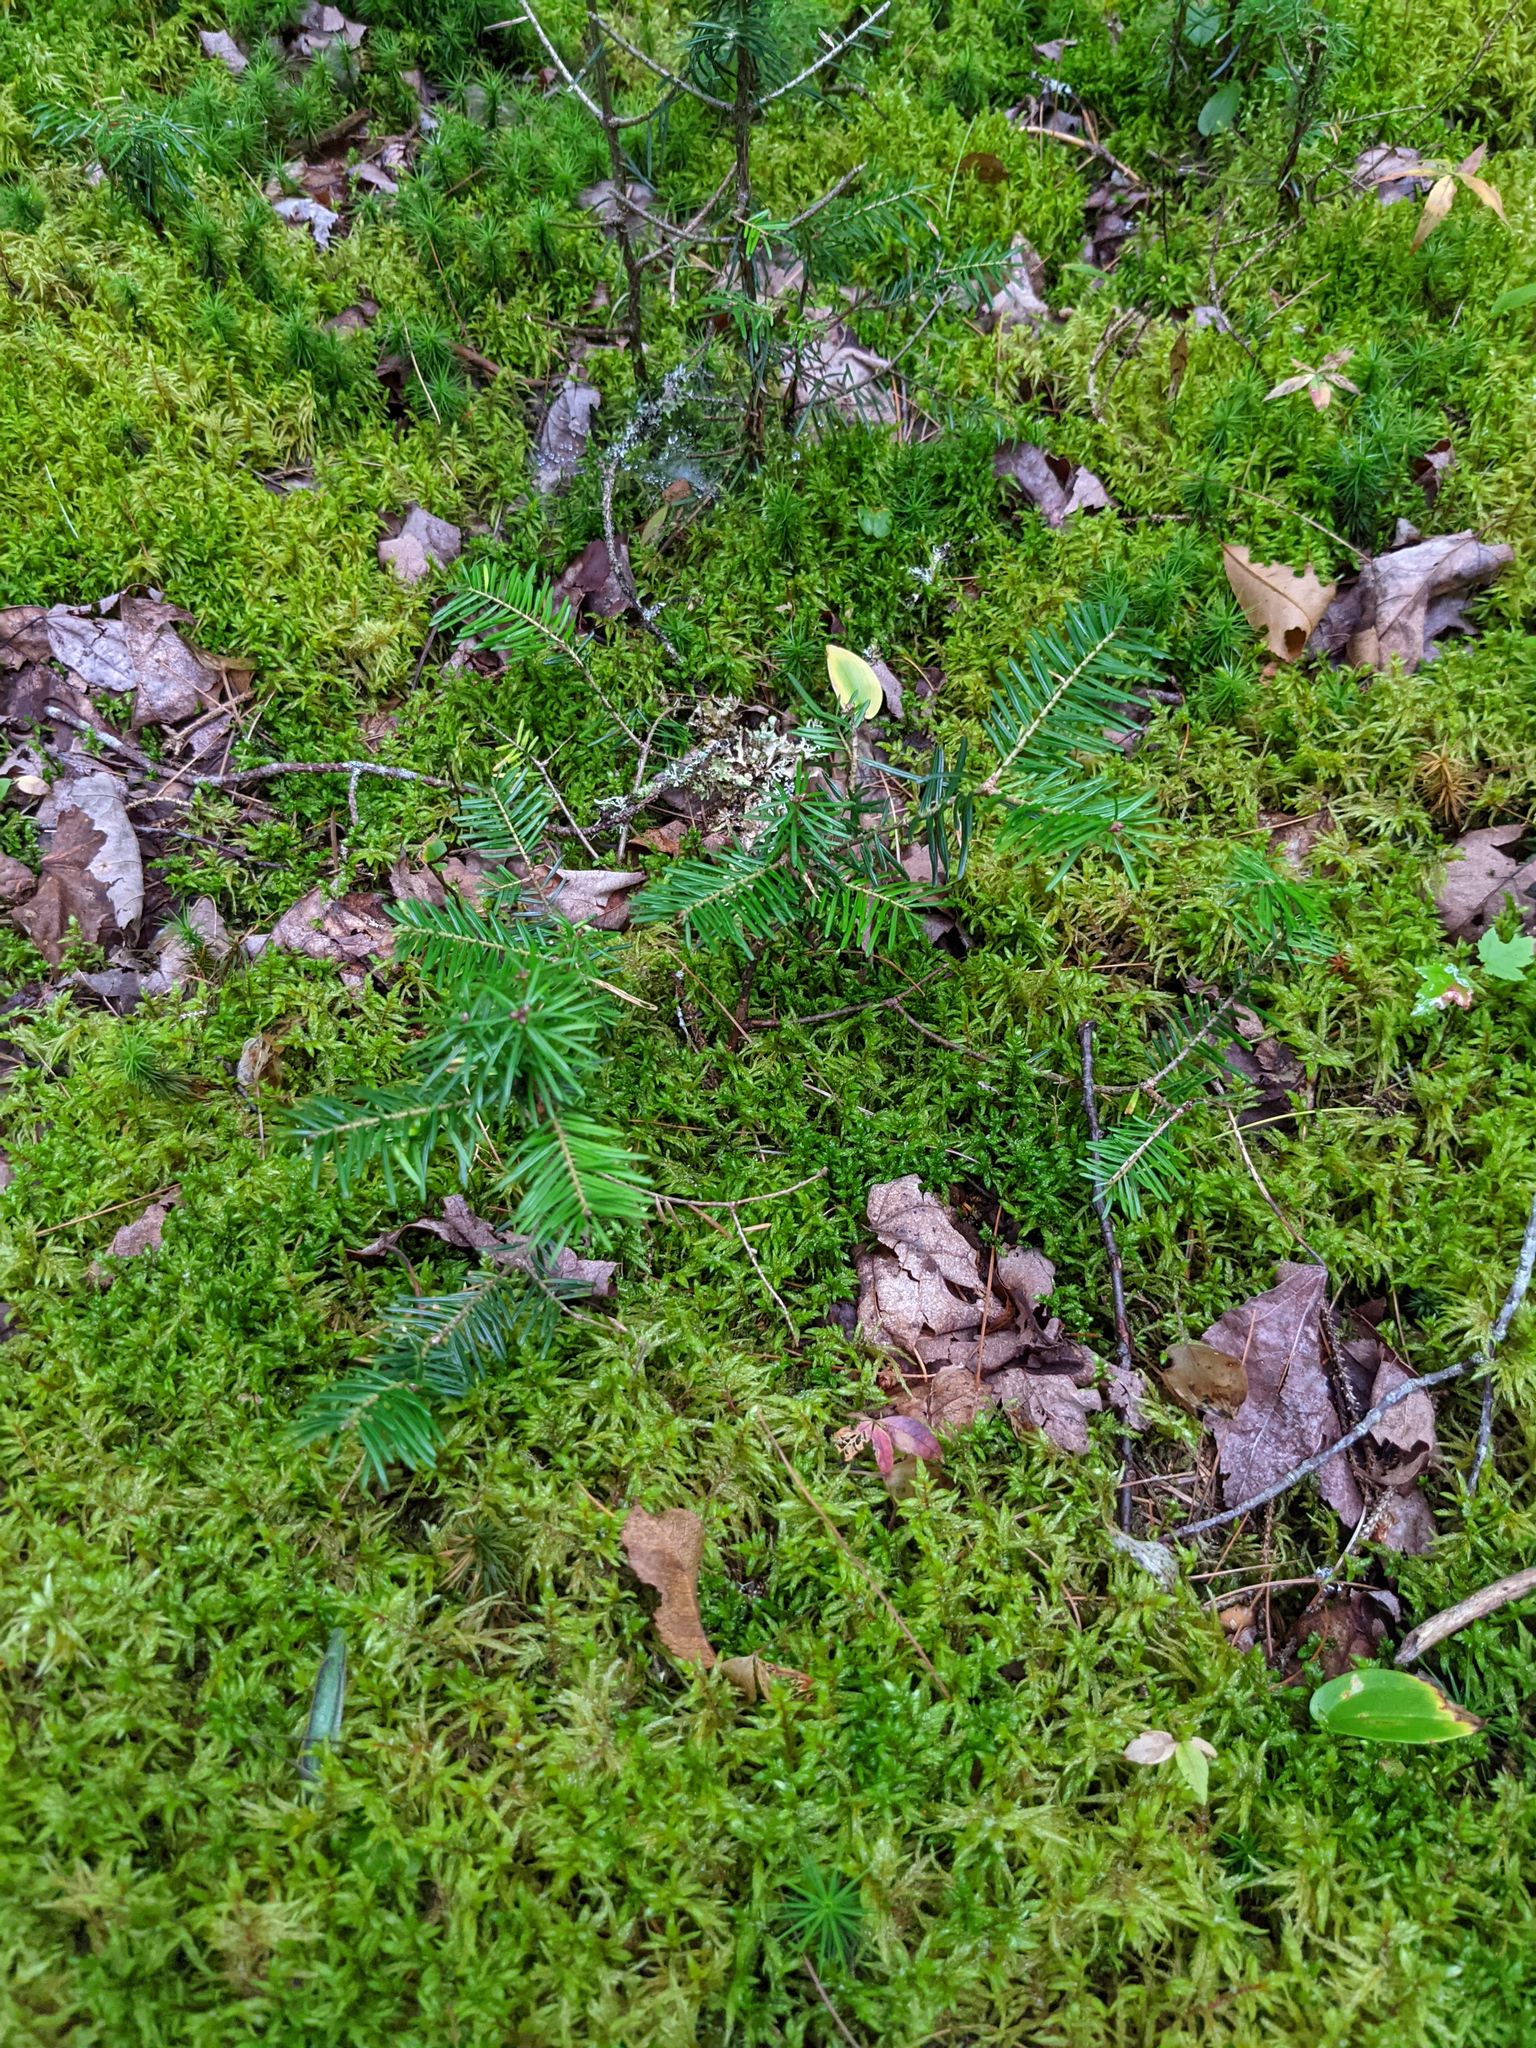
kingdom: Plantae
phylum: Tracheophyta
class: Pinopsida
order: Pinales
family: Pinaceae
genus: Abies
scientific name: Abies balsamea
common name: Balsam fir
